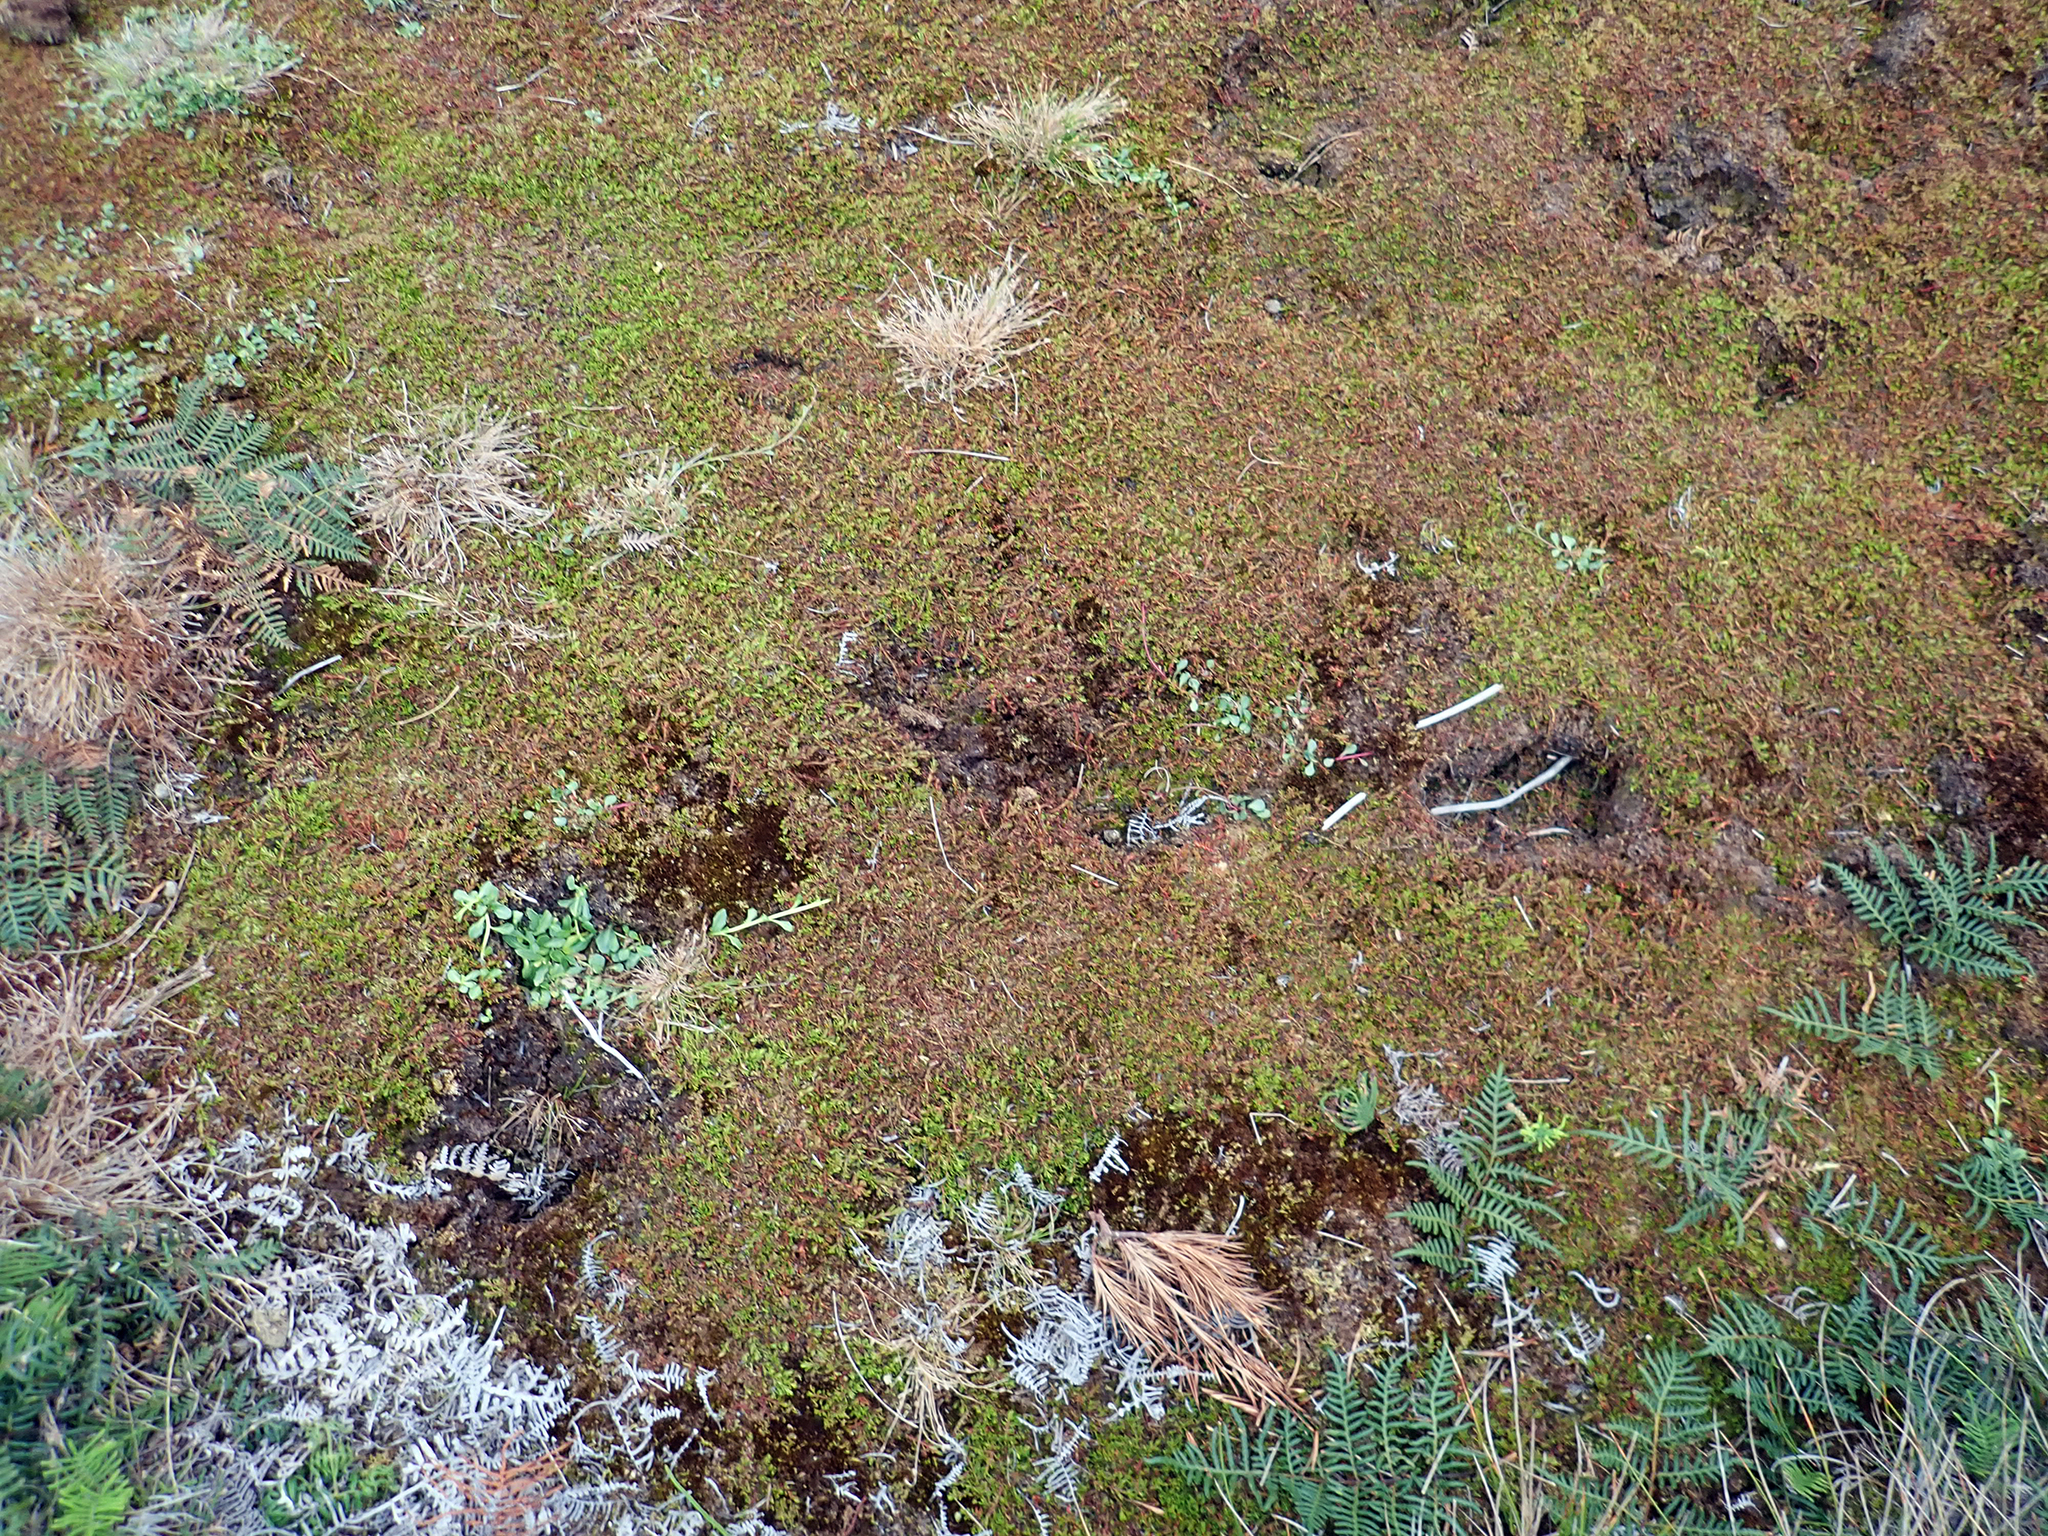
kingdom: Plantae
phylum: Tracheophyta
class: Magnoliopsida
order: Saxifragales
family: Haloragaceae
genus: Myriophyllum
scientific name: Myriophyllum pedunculatum
